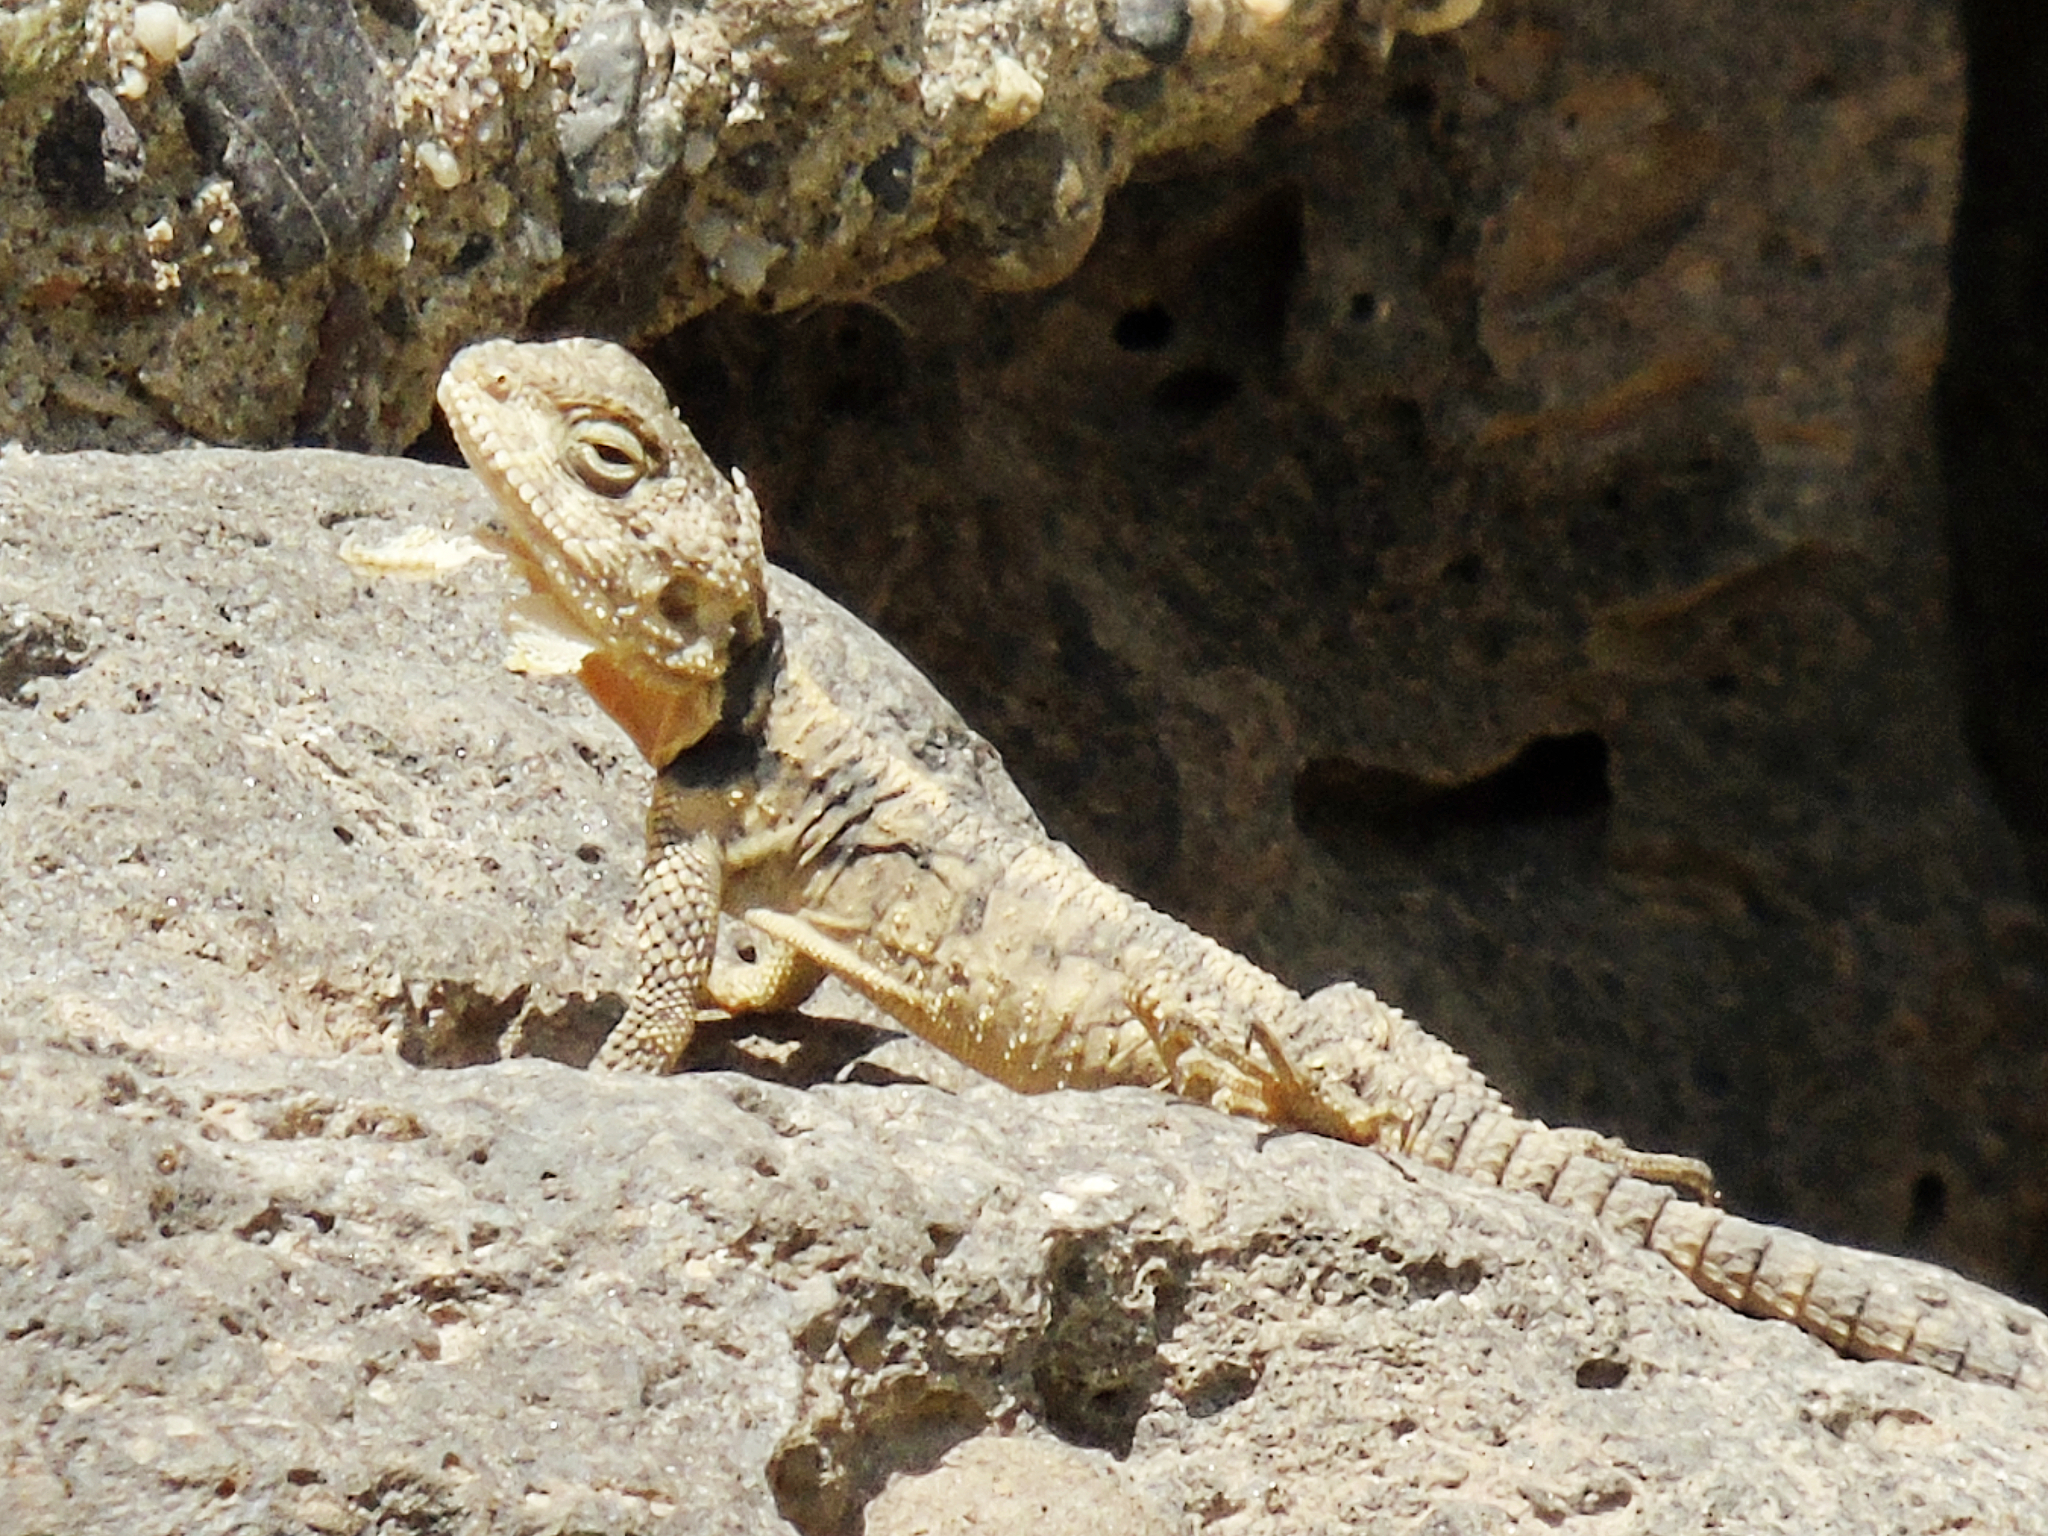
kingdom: Animalia
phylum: Chordata
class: Squamata
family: Agamidae
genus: Stellagama
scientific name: Stellagama stellio
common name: Starred agama
